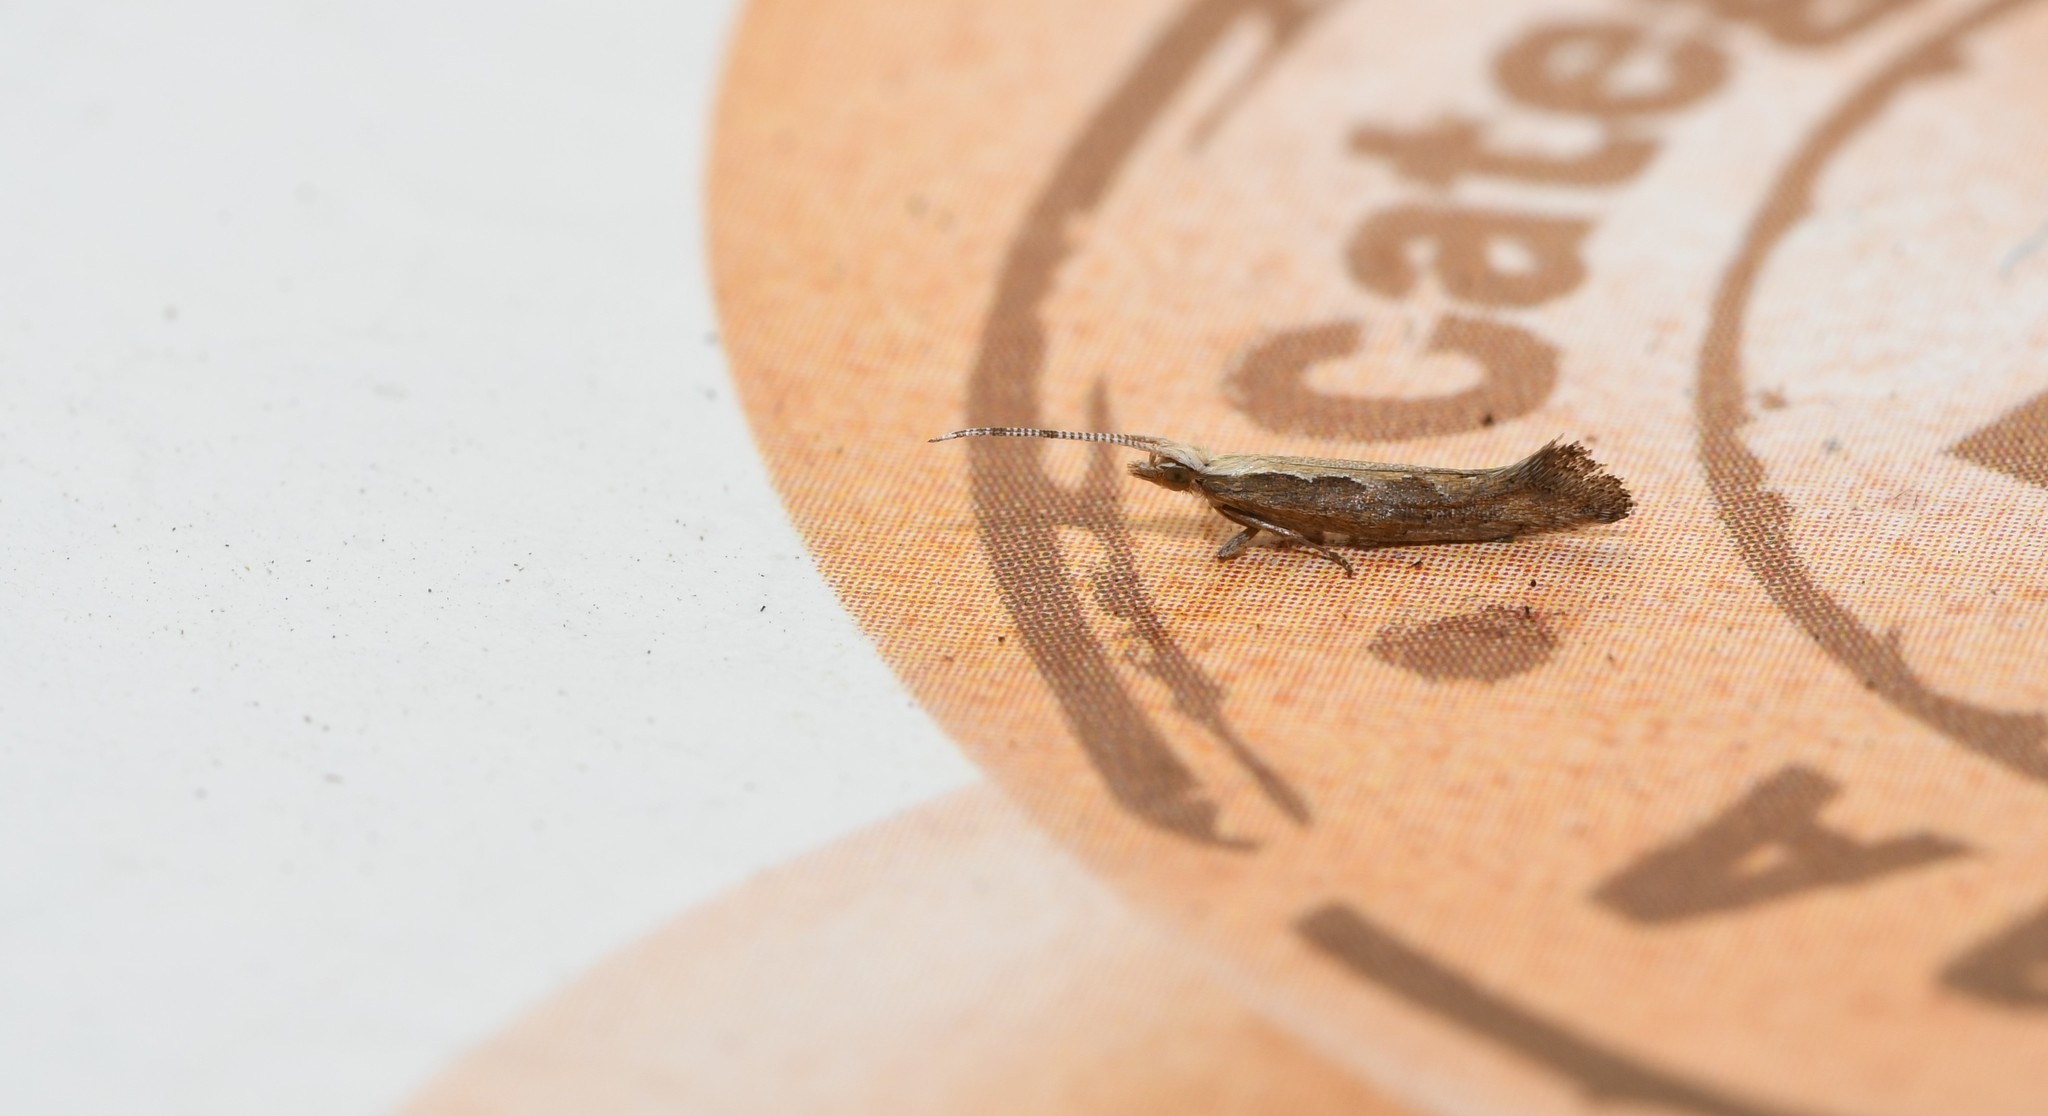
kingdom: Animalia
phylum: Arthropoda
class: Insecta
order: Lepidoptera
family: Plutellidae
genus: Plutella
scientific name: Plutella xylostella
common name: Diamond-back moth
